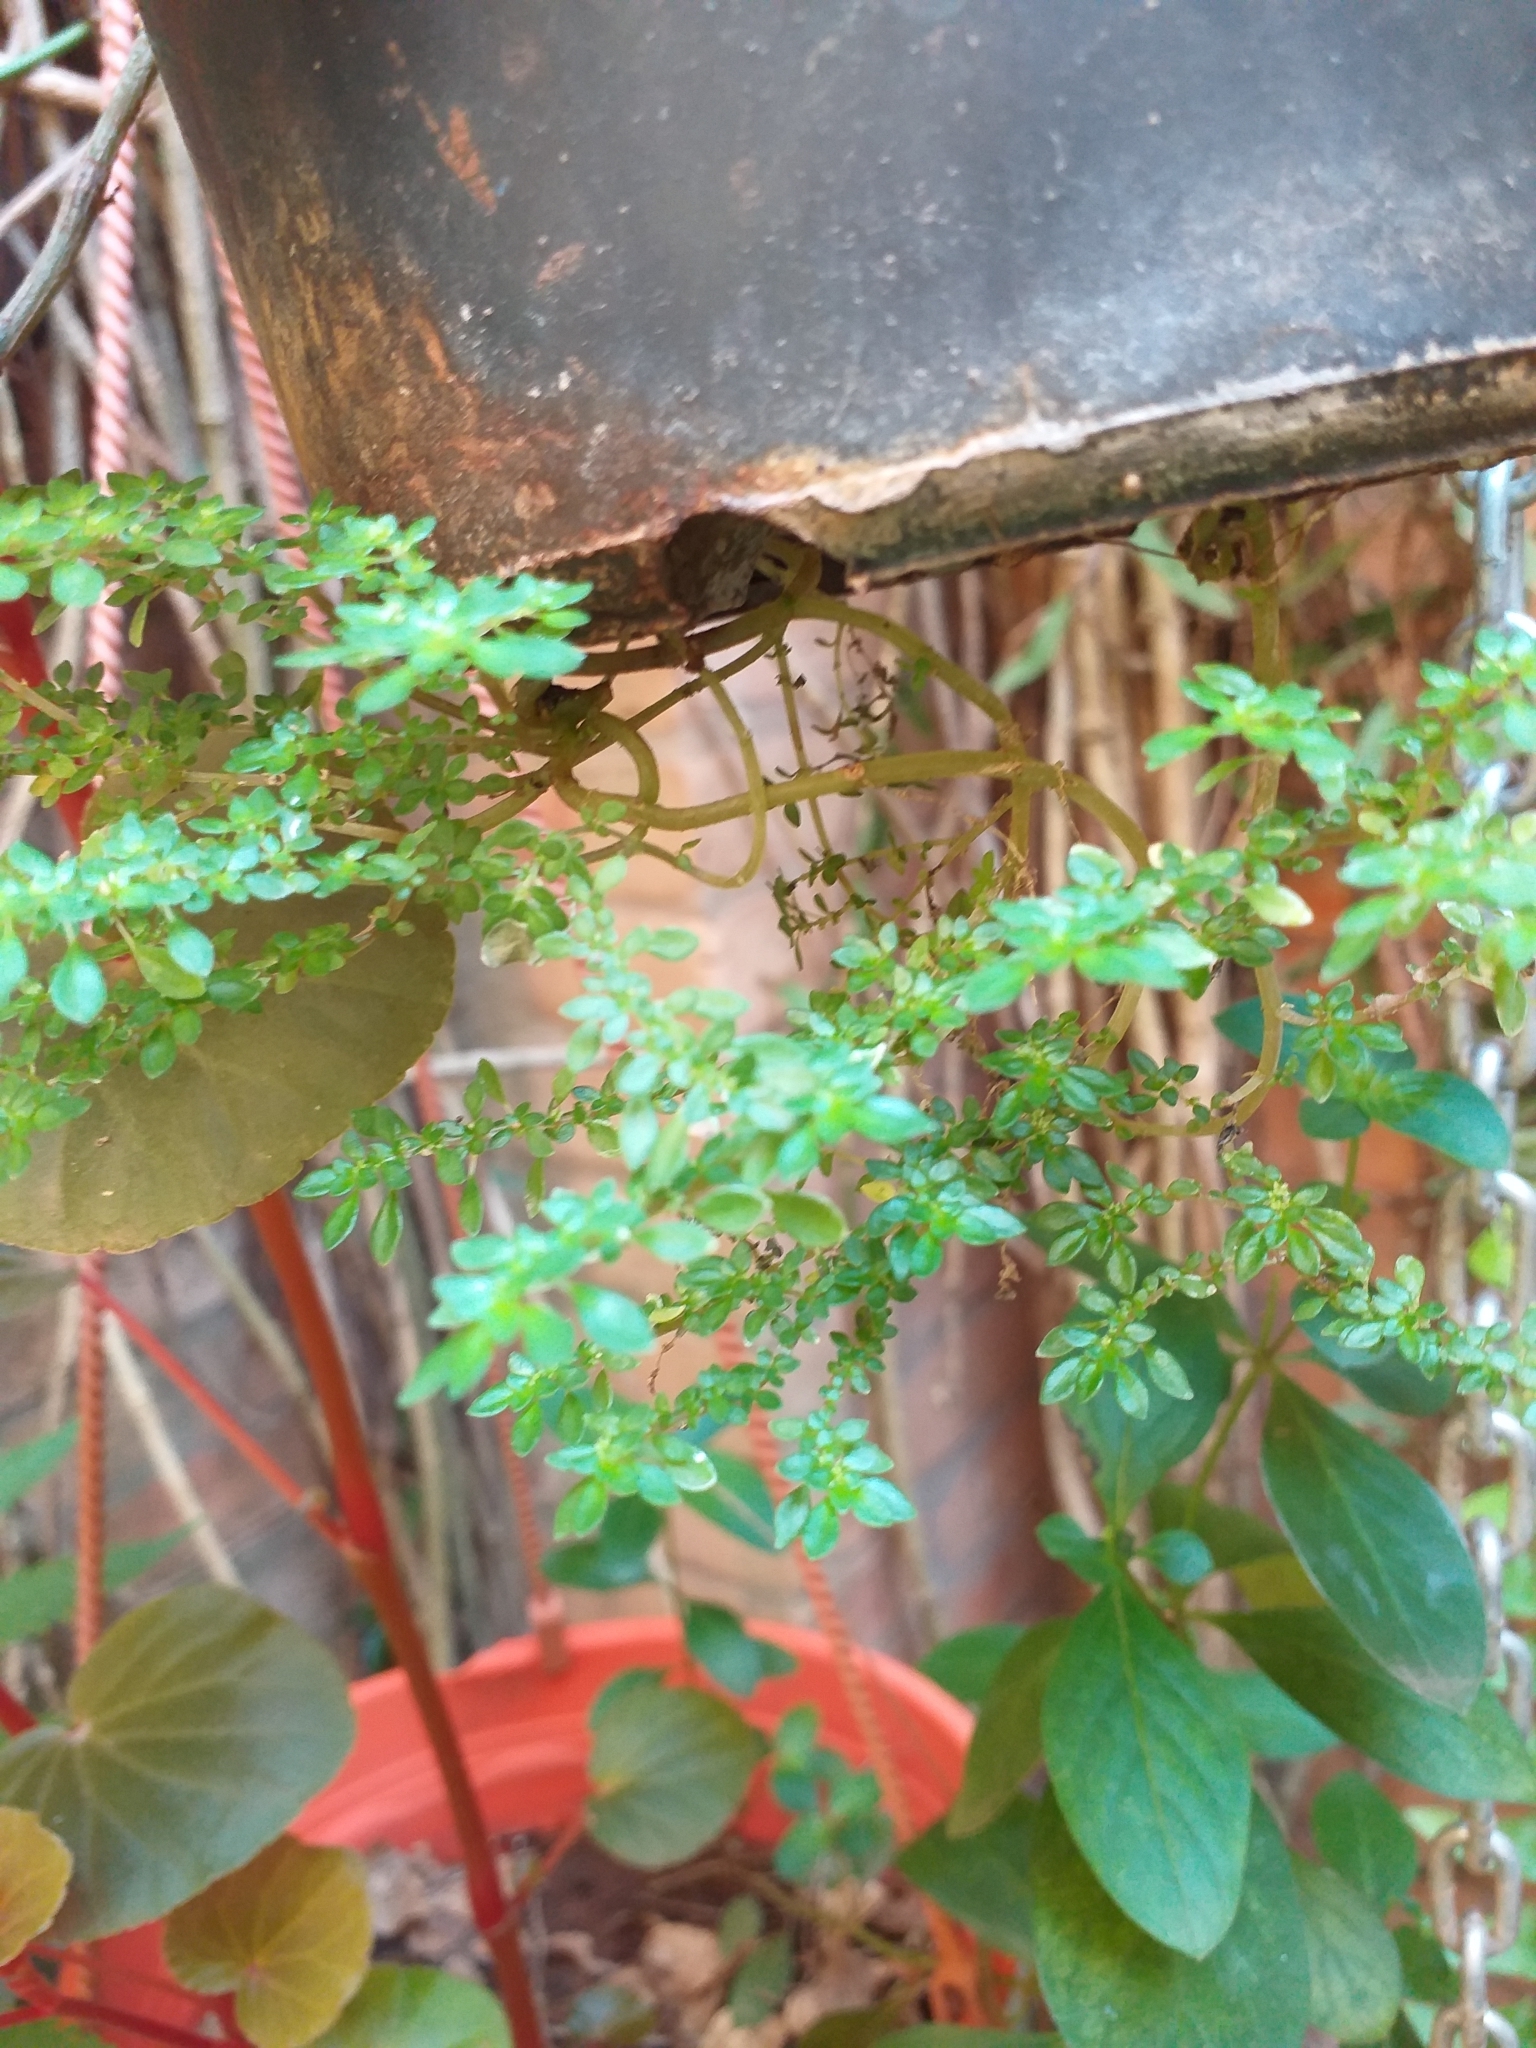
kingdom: Plantae
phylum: Tracheophyta
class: Magnoliopsida
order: Rosales
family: Urticaceae
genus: Pilea
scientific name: Pilea microphylla
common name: Artillery-plant
